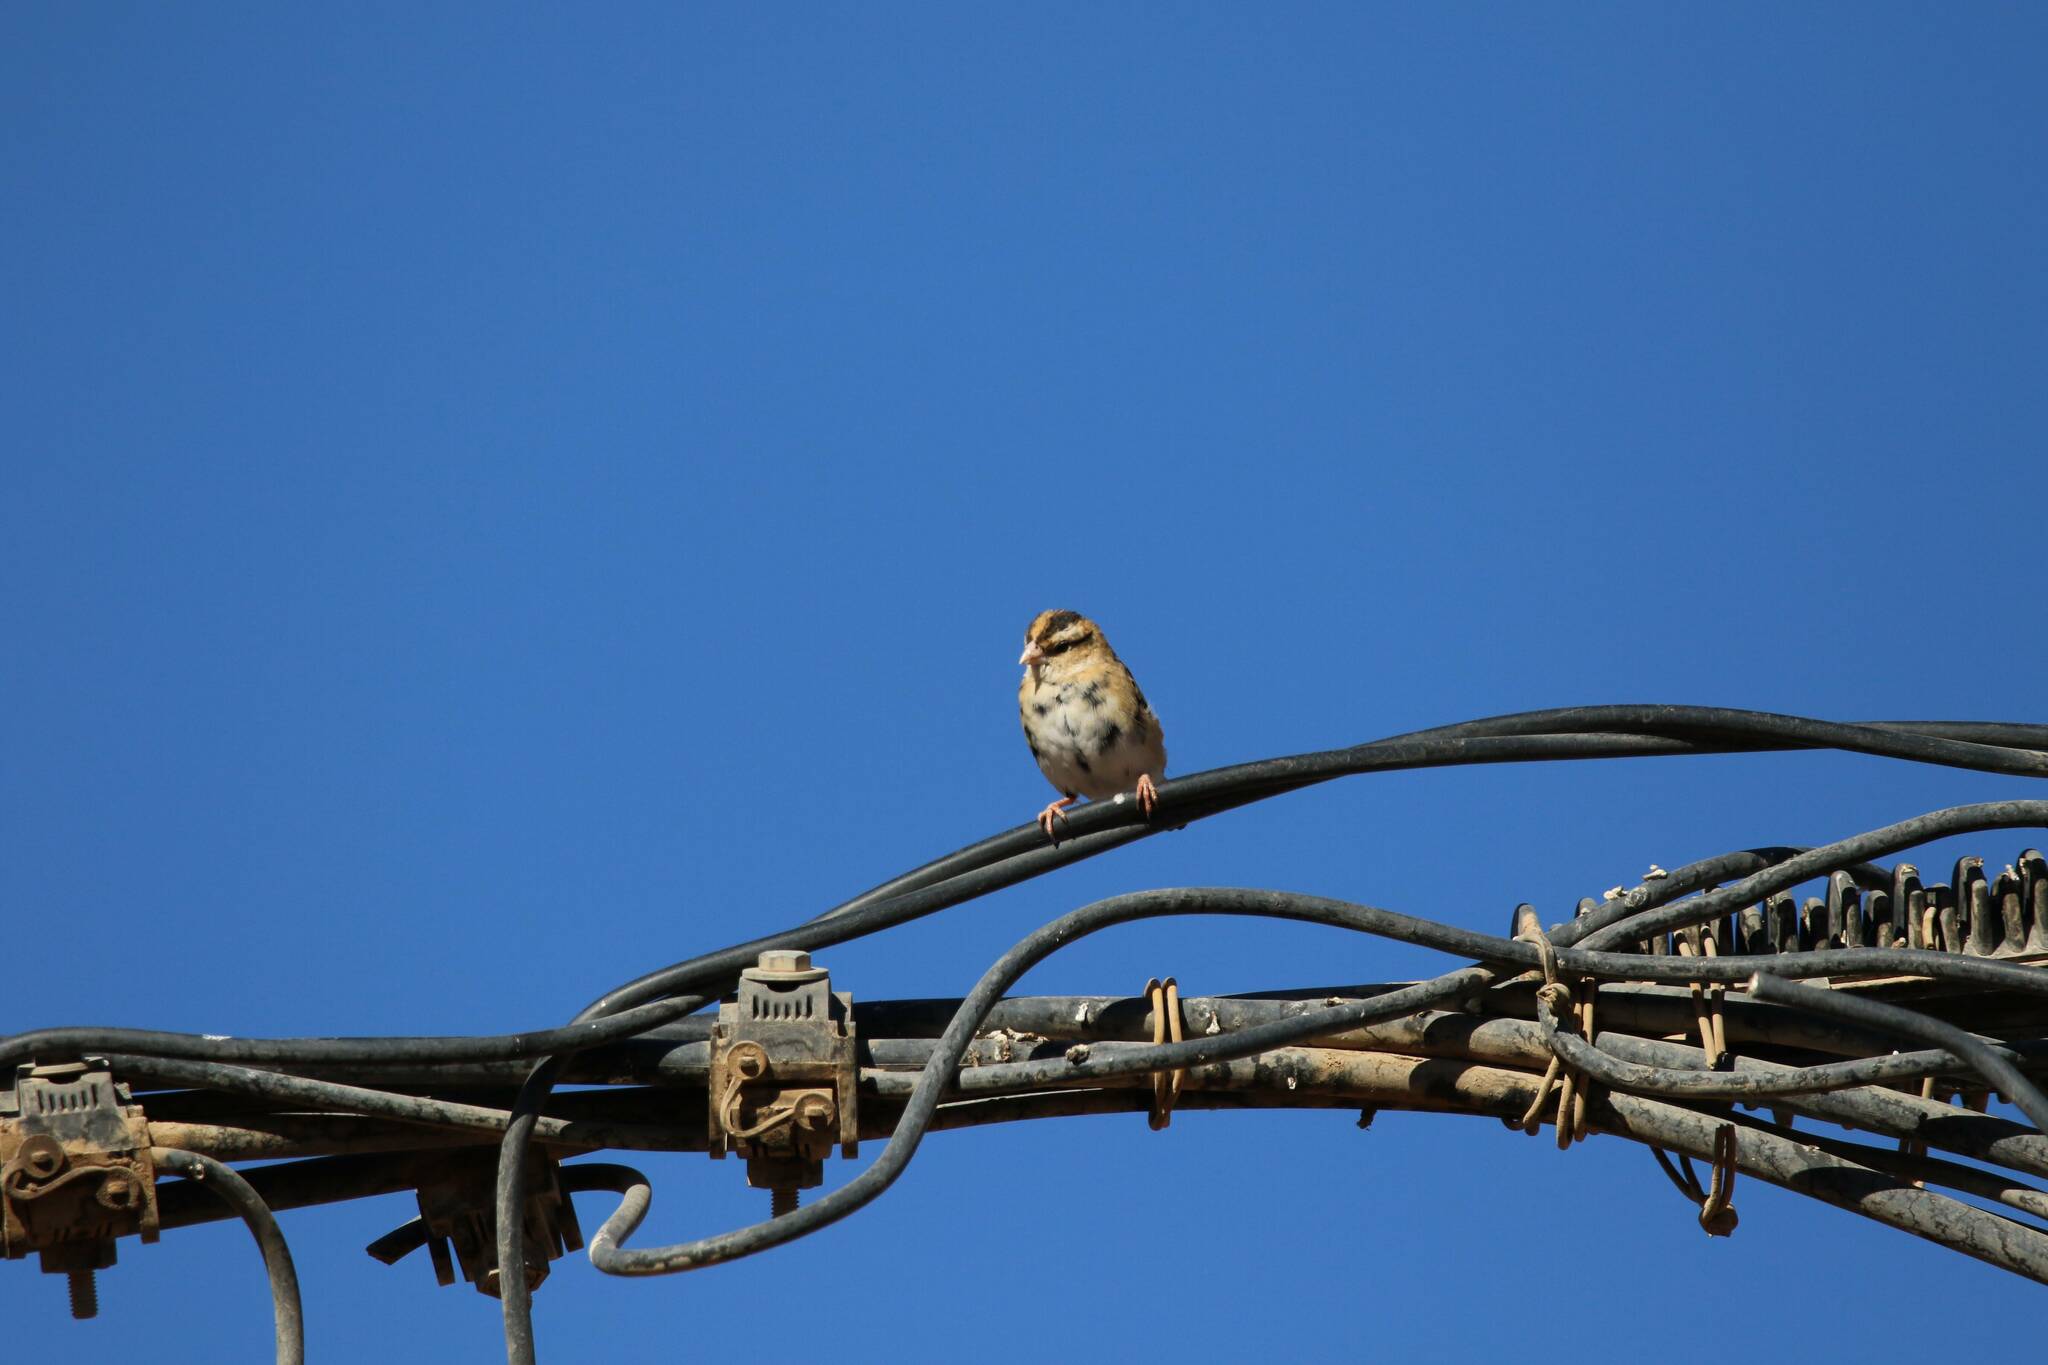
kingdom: Animalia
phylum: Chordata
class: Aves
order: Passeriformes
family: Viduidae
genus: Vidua
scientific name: Vidua chalybeata
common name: Village indigobird
